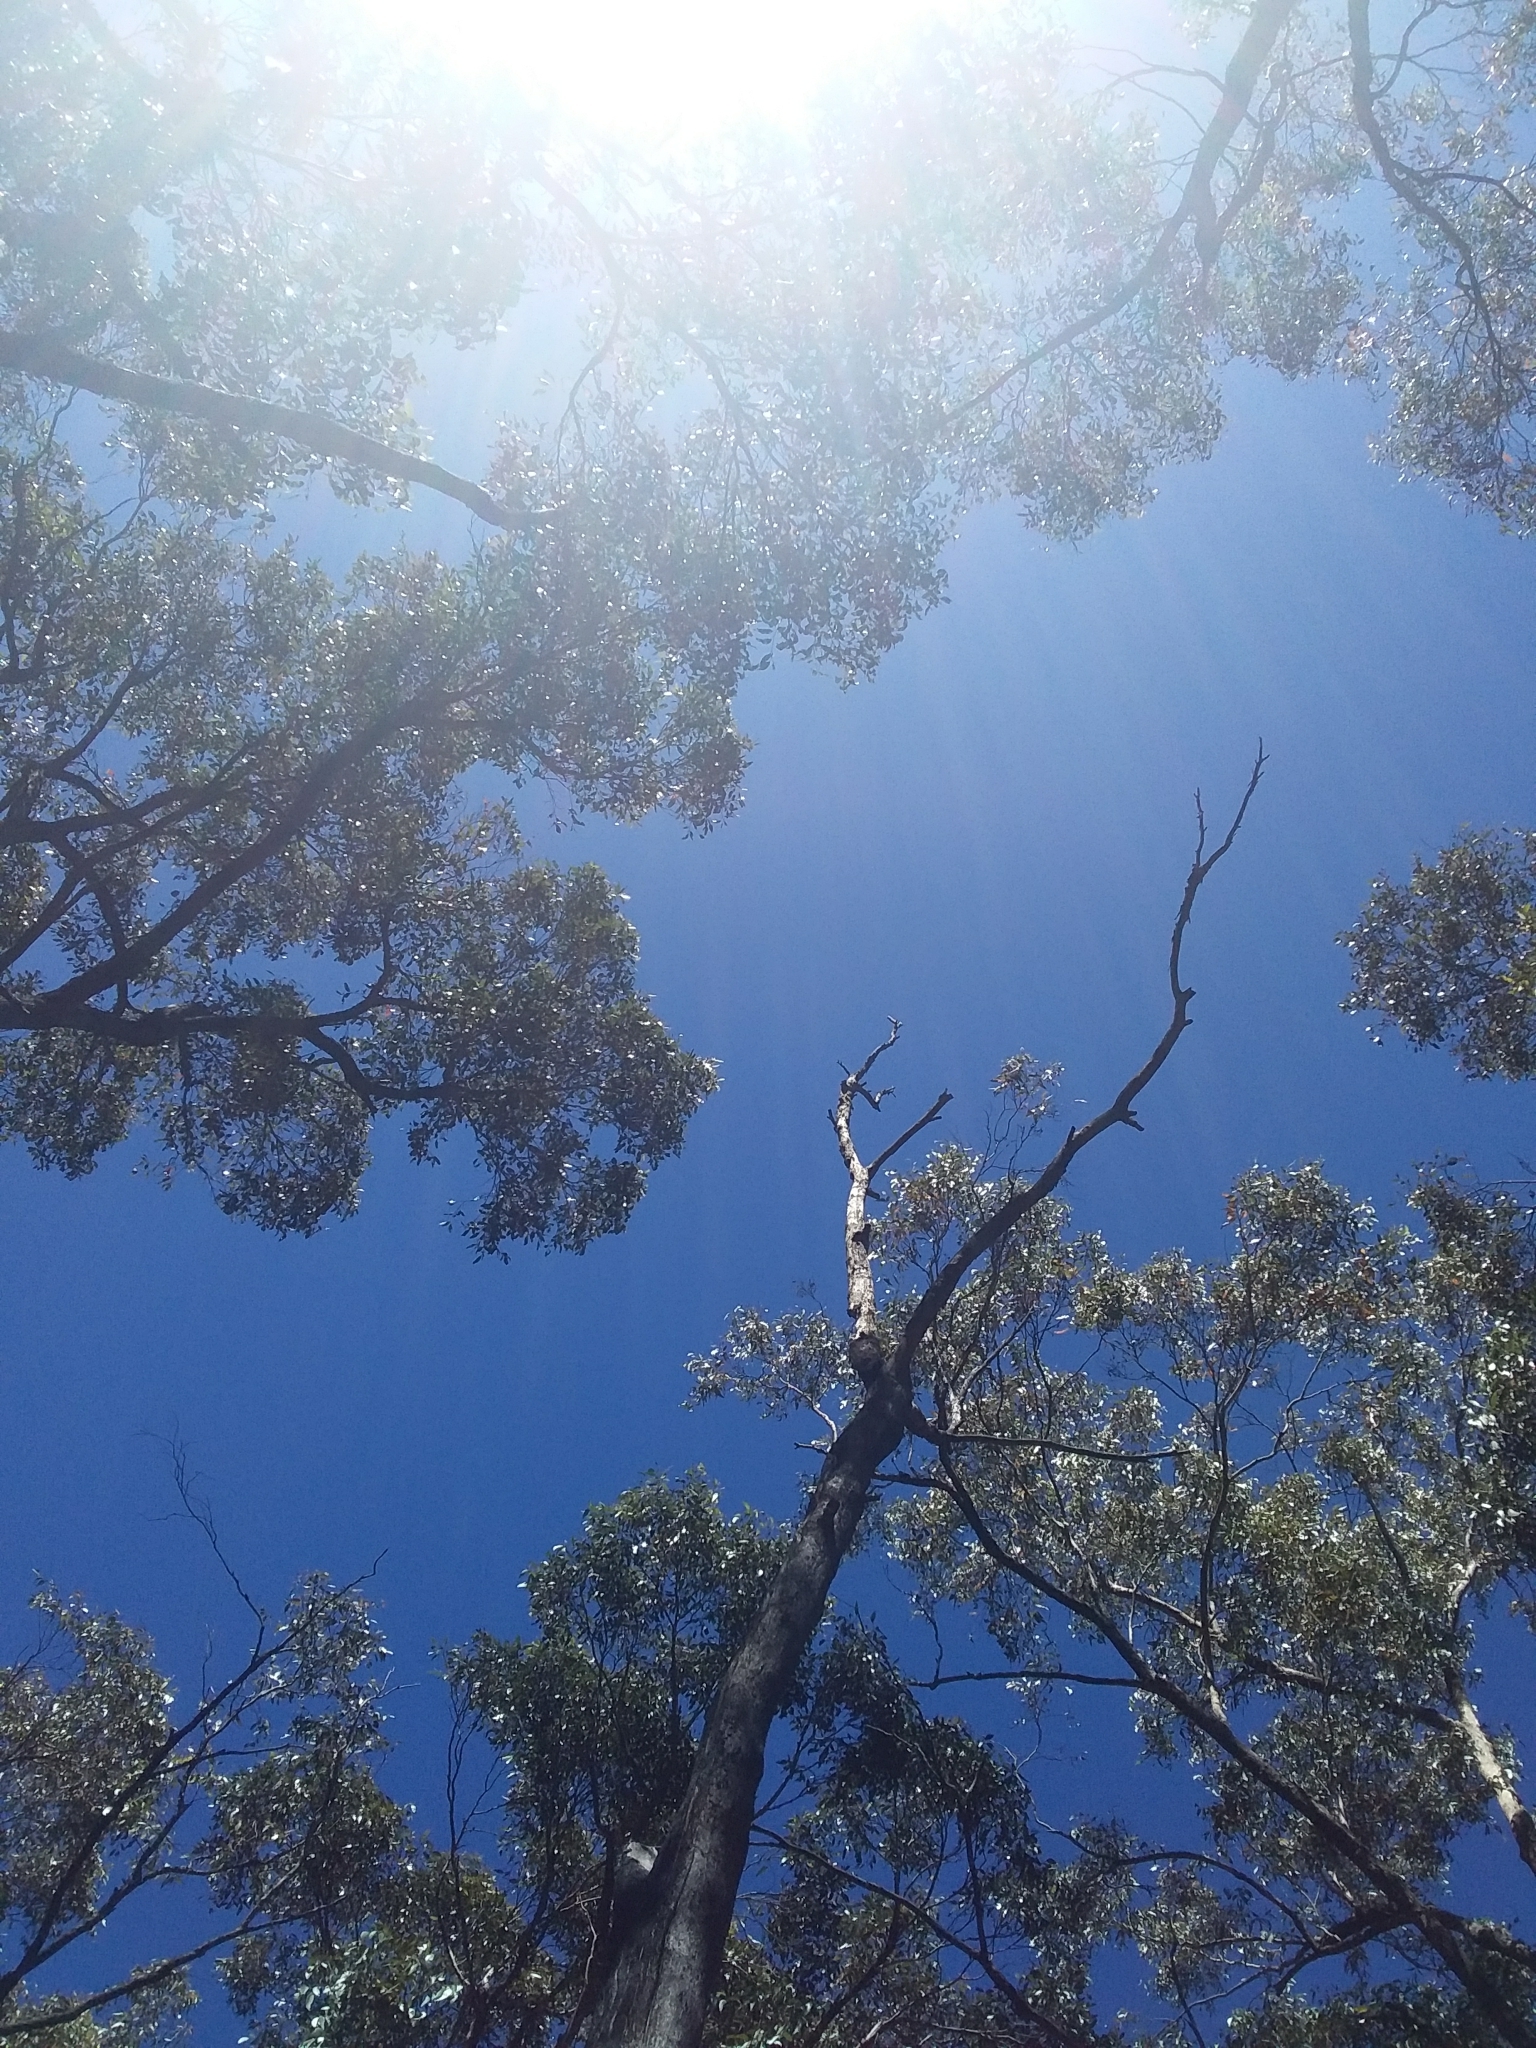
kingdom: Plantae
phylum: Tracheophyta
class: Liliopsida
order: Asparagales
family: Orchidaceae
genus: Dipodium
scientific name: Dipodium roseum
